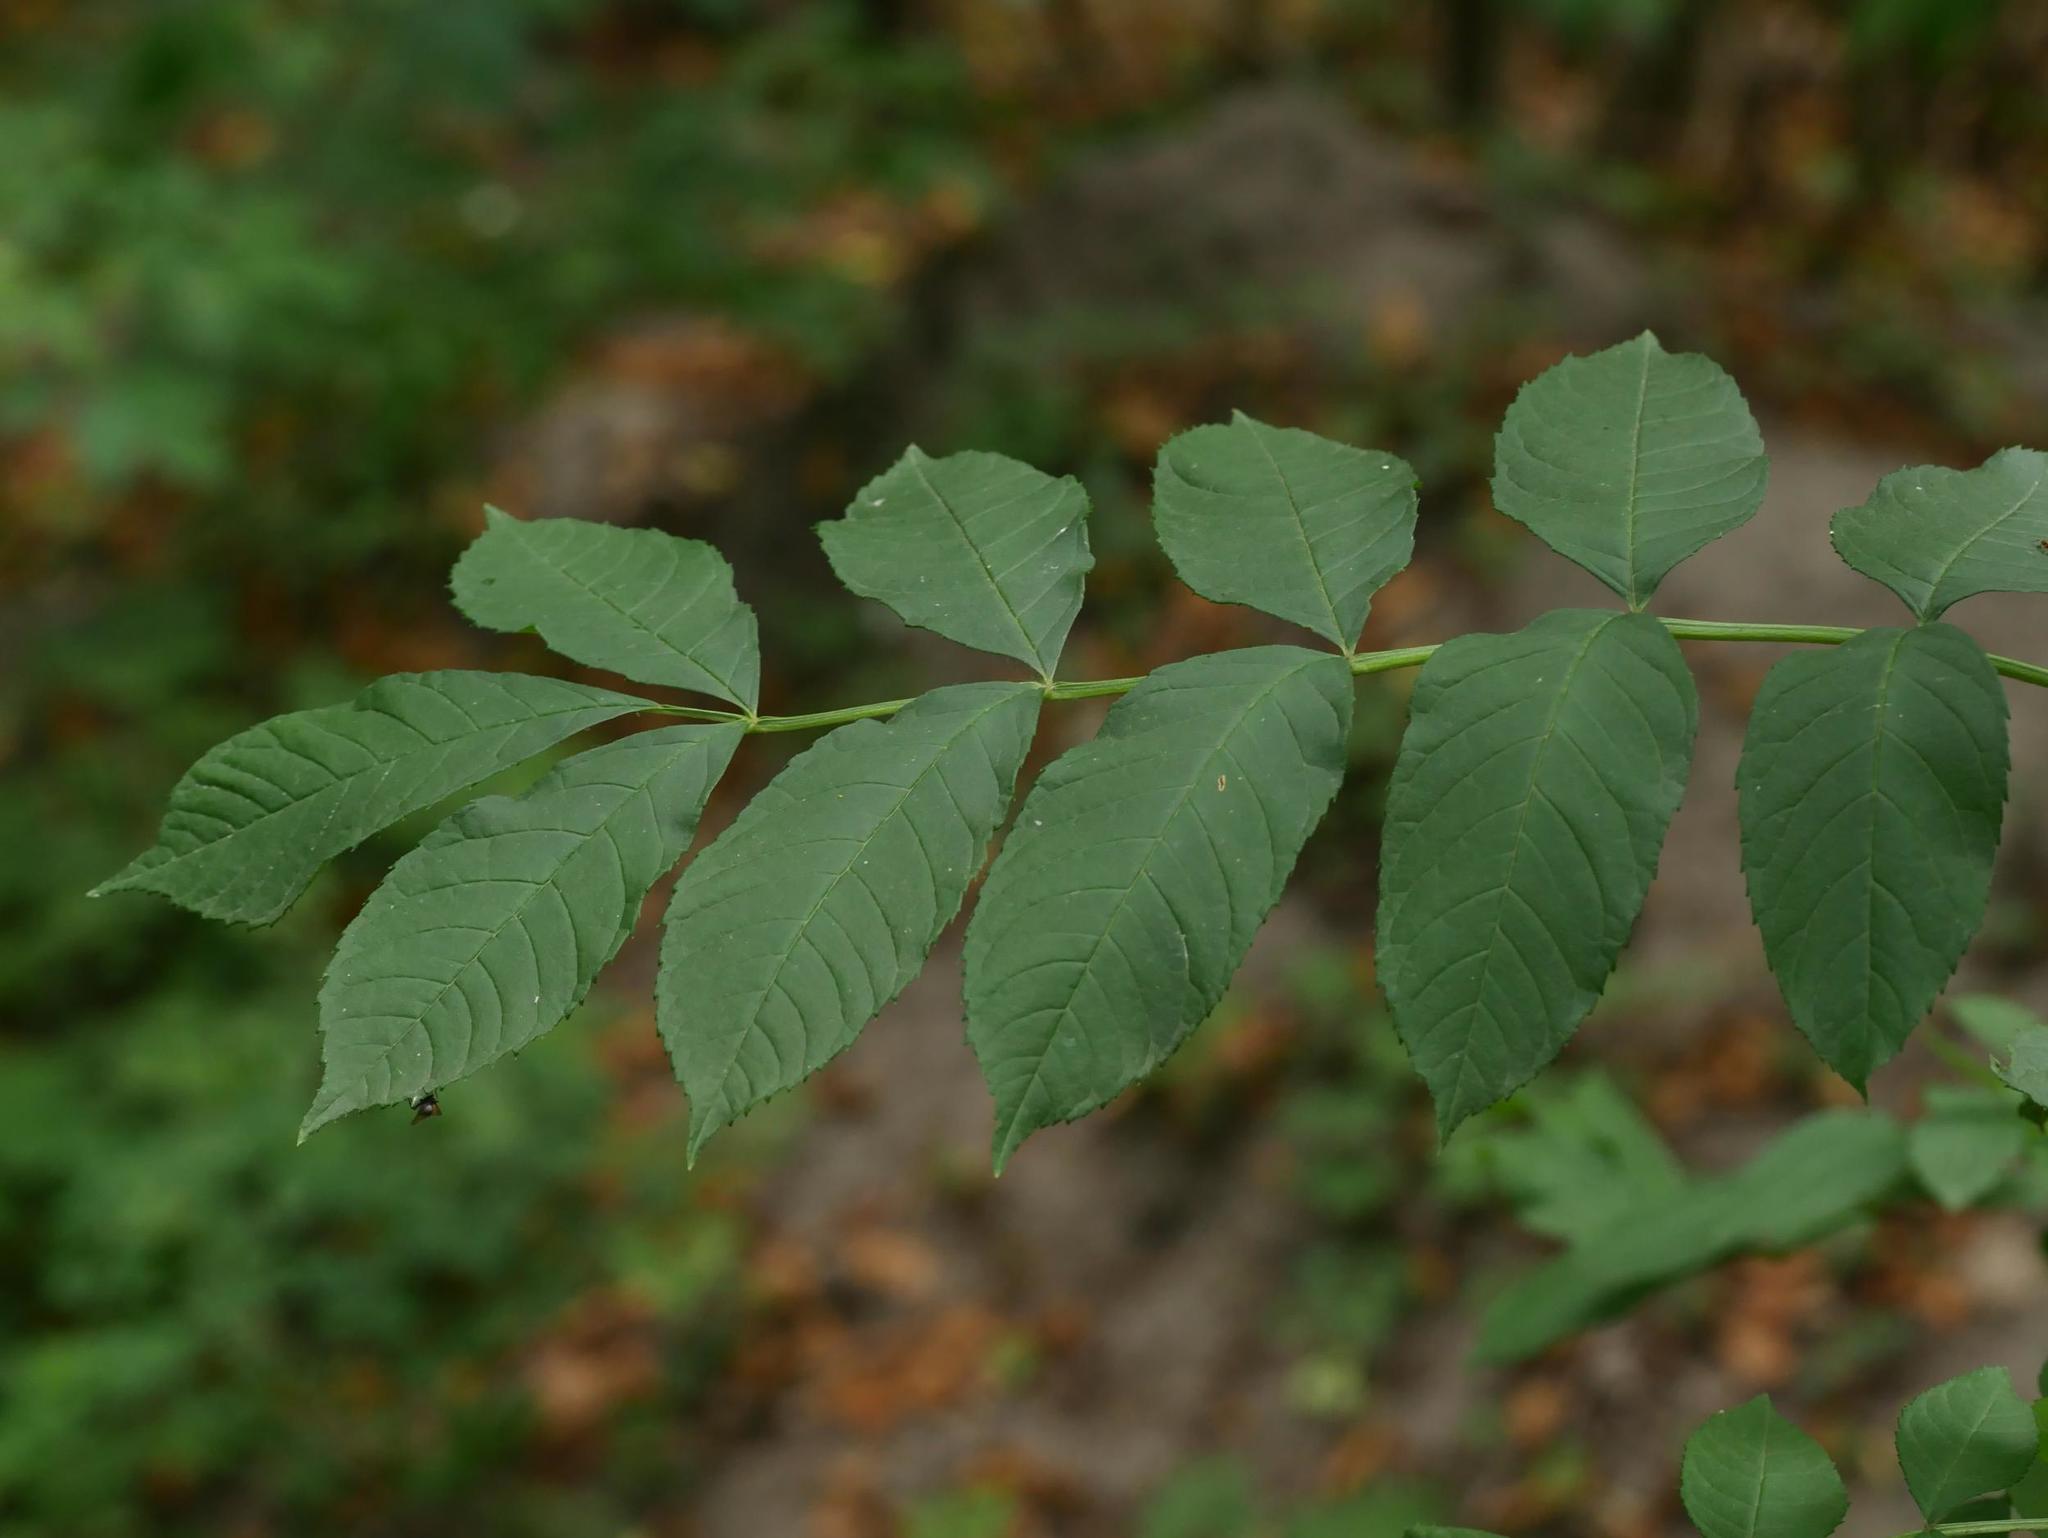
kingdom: Plantae
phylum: Tracheophyta
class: Magnoliopsida
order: Lamiales
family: Oleaceae
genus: Fraxinus
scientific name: Fraxinus excelsior
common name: European ash
